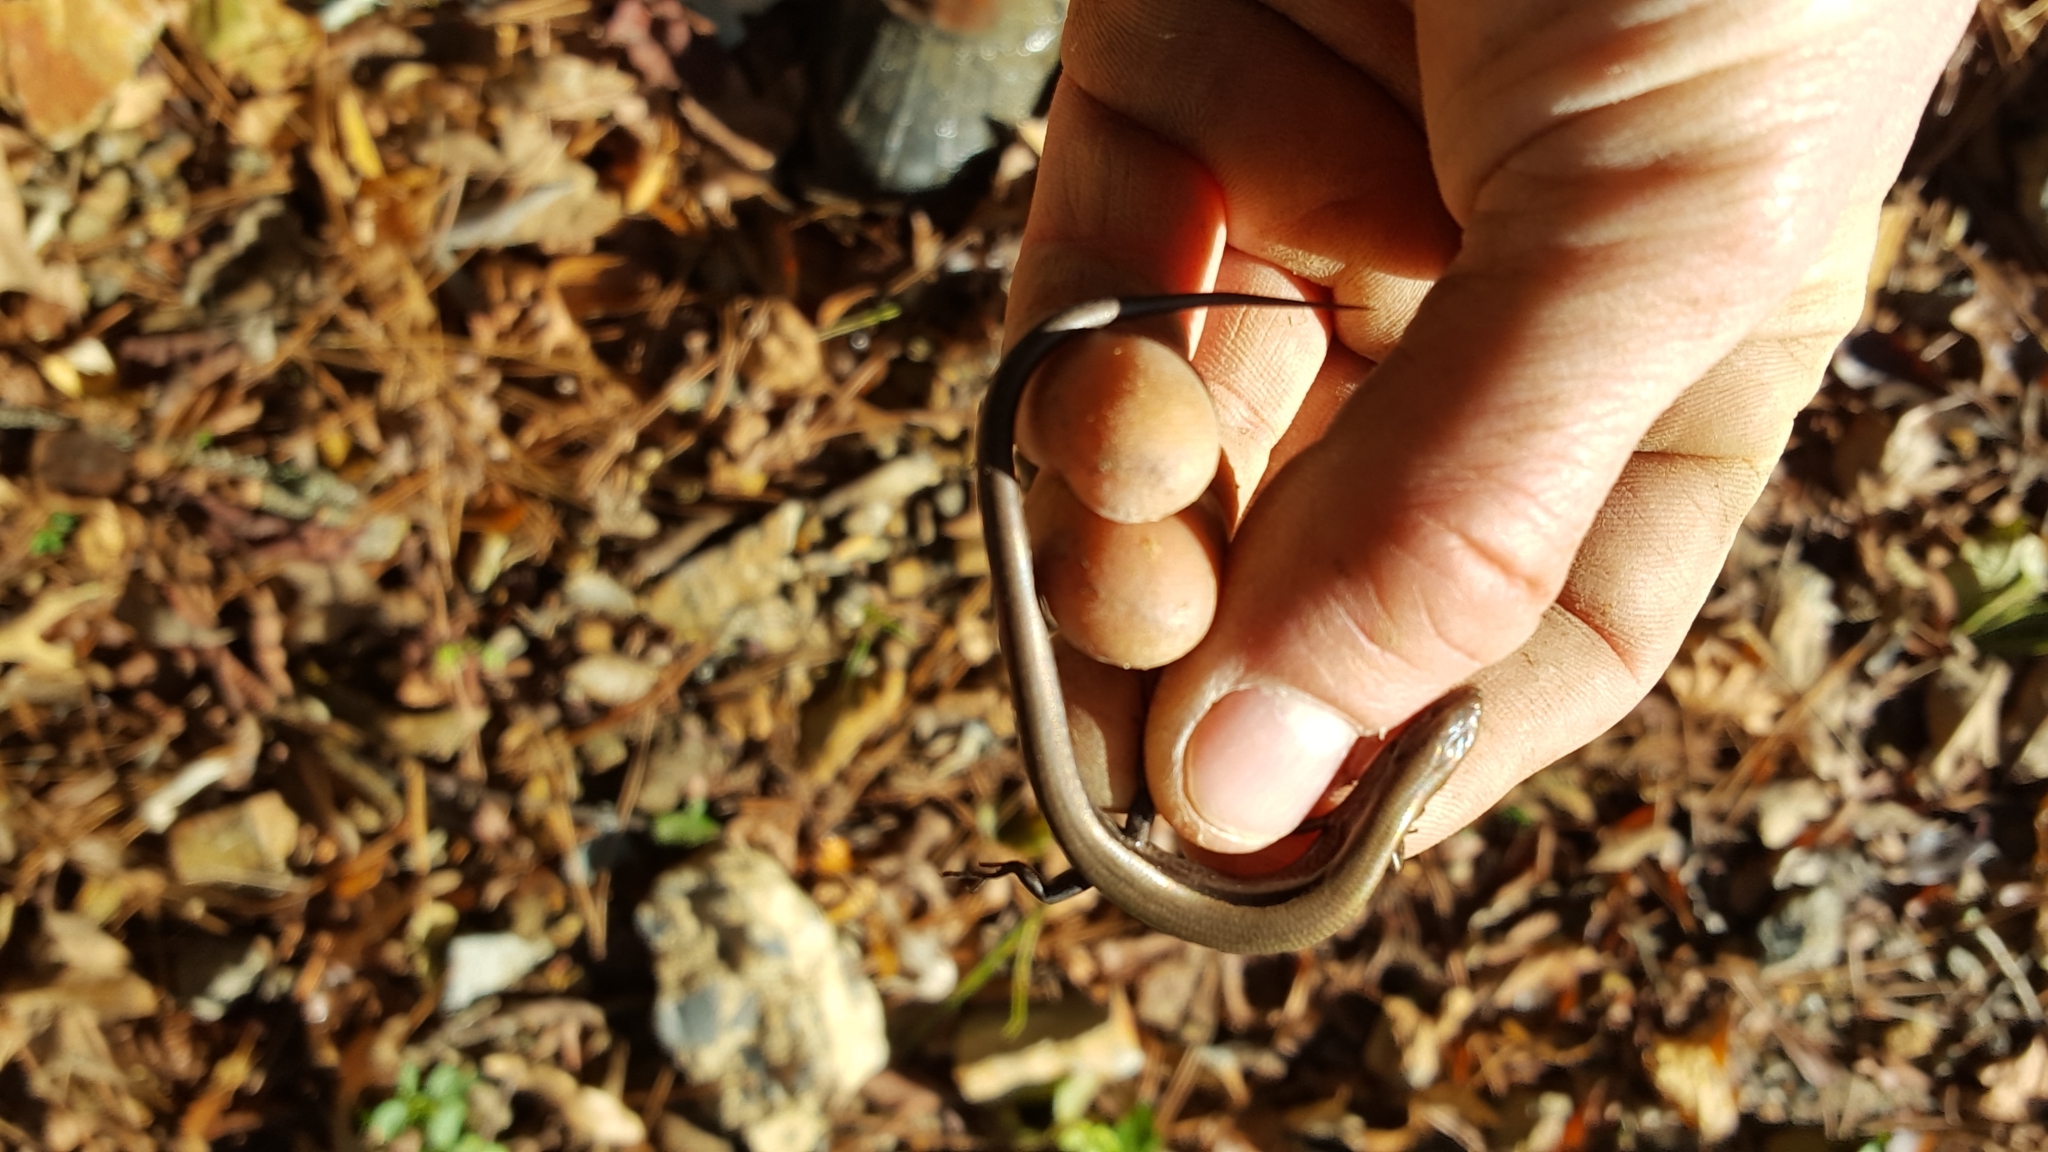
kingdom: Animalia
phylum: Chordata
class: Squamata
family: Scincidae
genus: Scincella
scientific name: Scincella lateralis
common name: Ground skink
